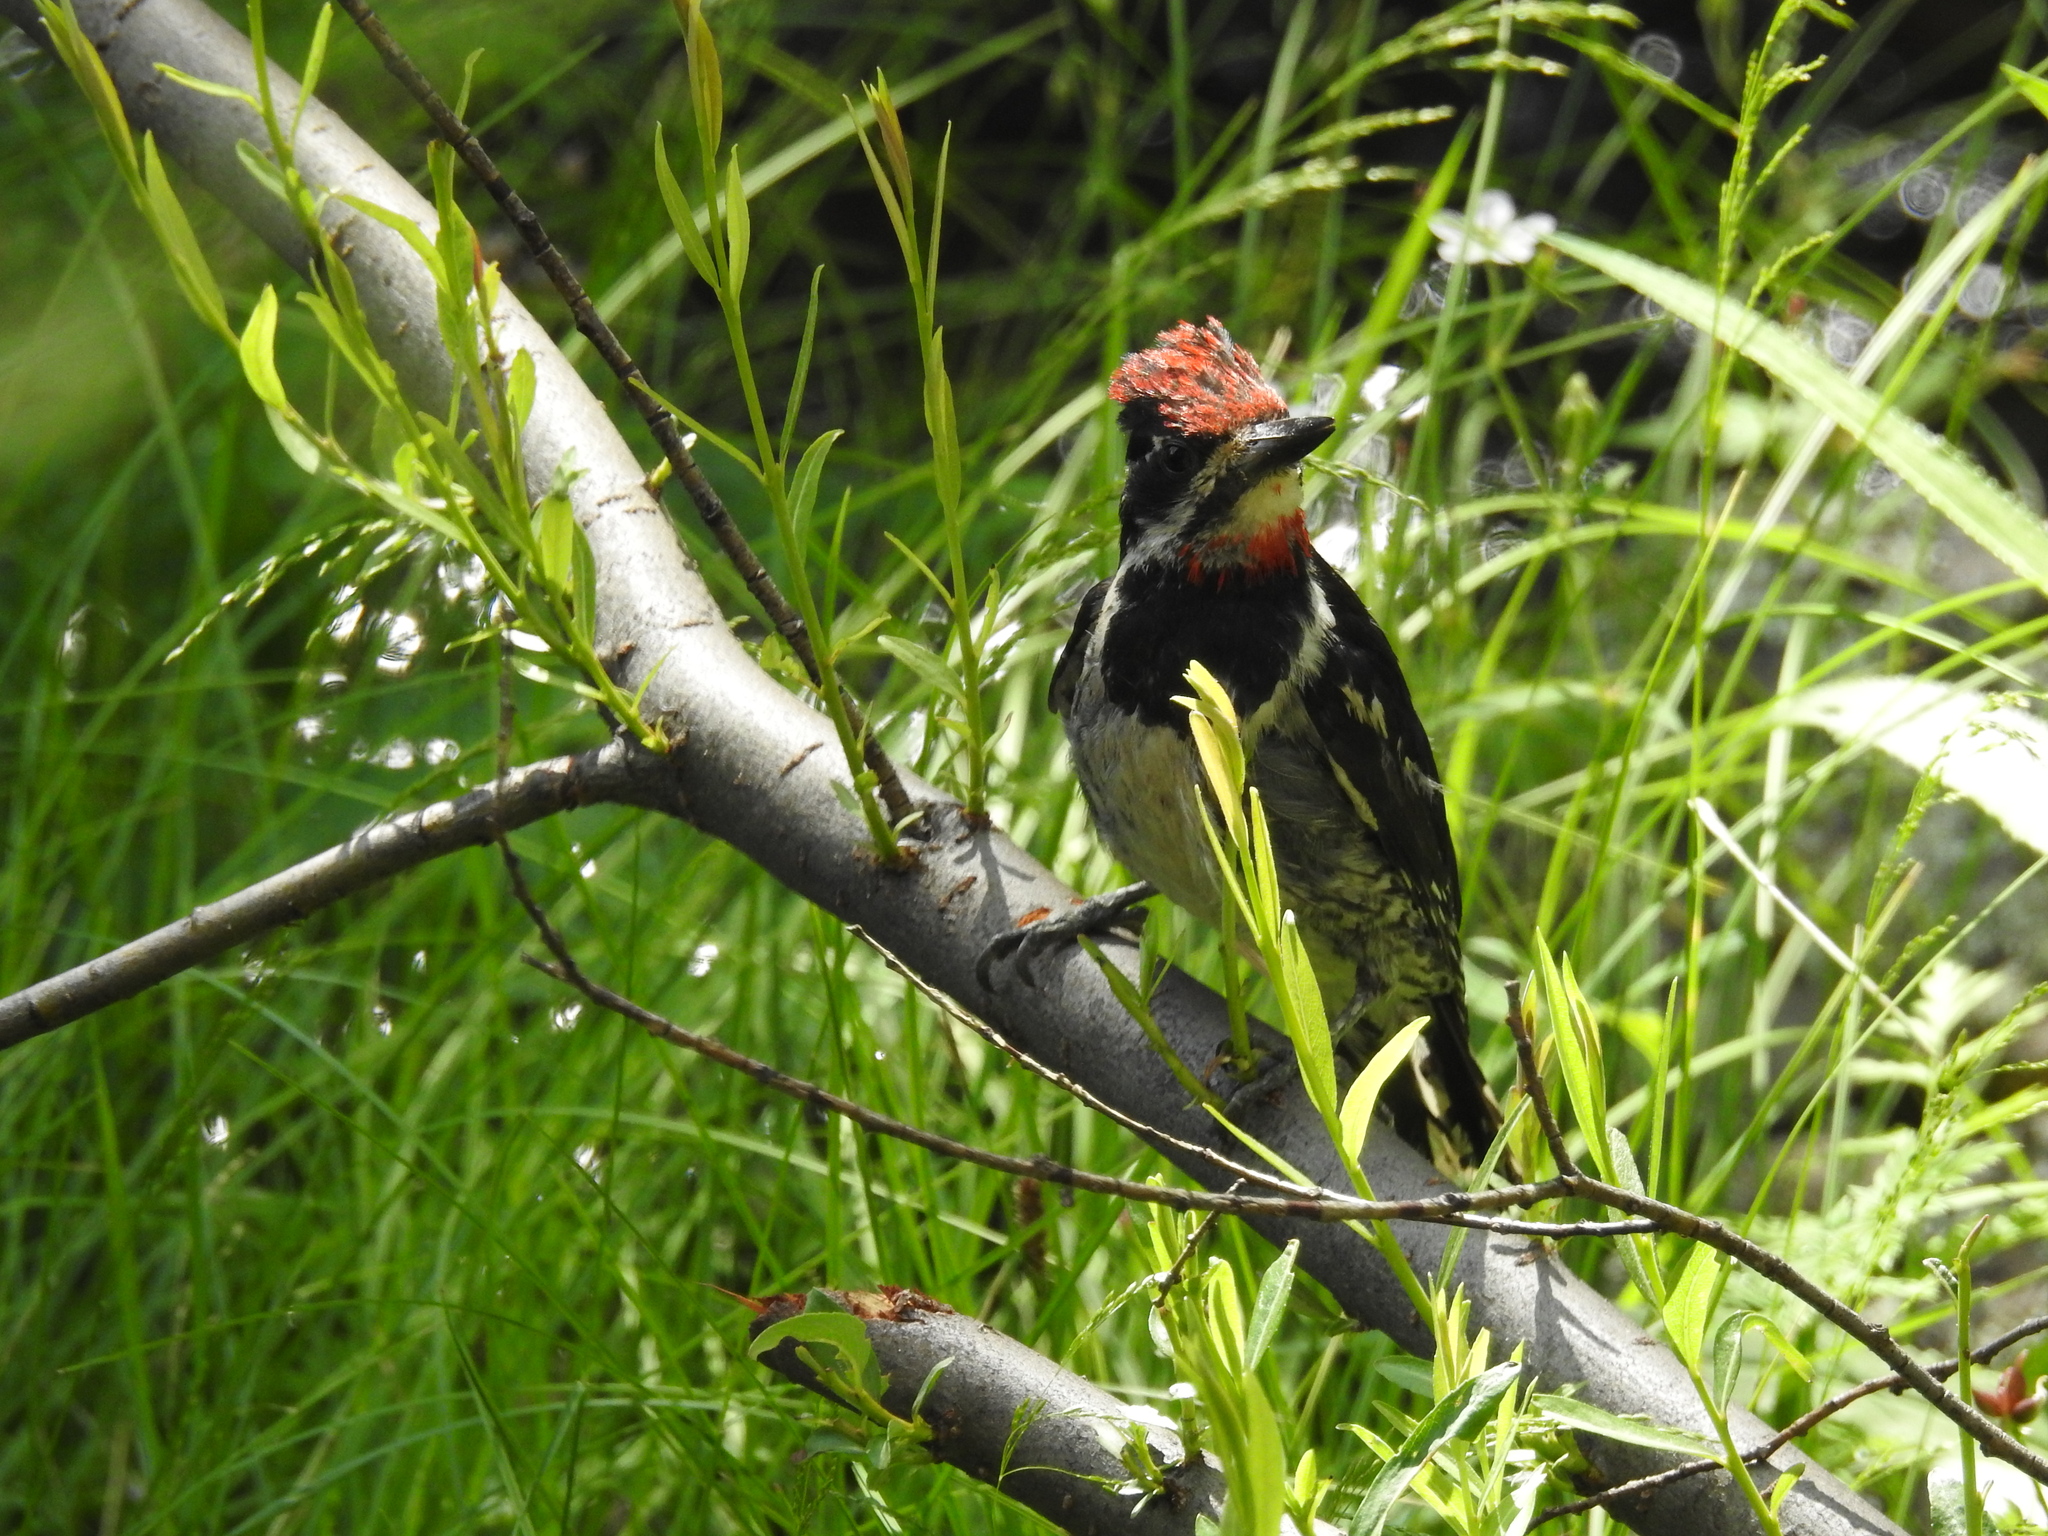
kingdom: Animalia
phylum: Chordata
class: Aves
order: Piciformes
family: Picidae
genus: Sphyrapicus
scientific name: Sphyrapicus nuchalis
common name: Red-naped sapsucker
